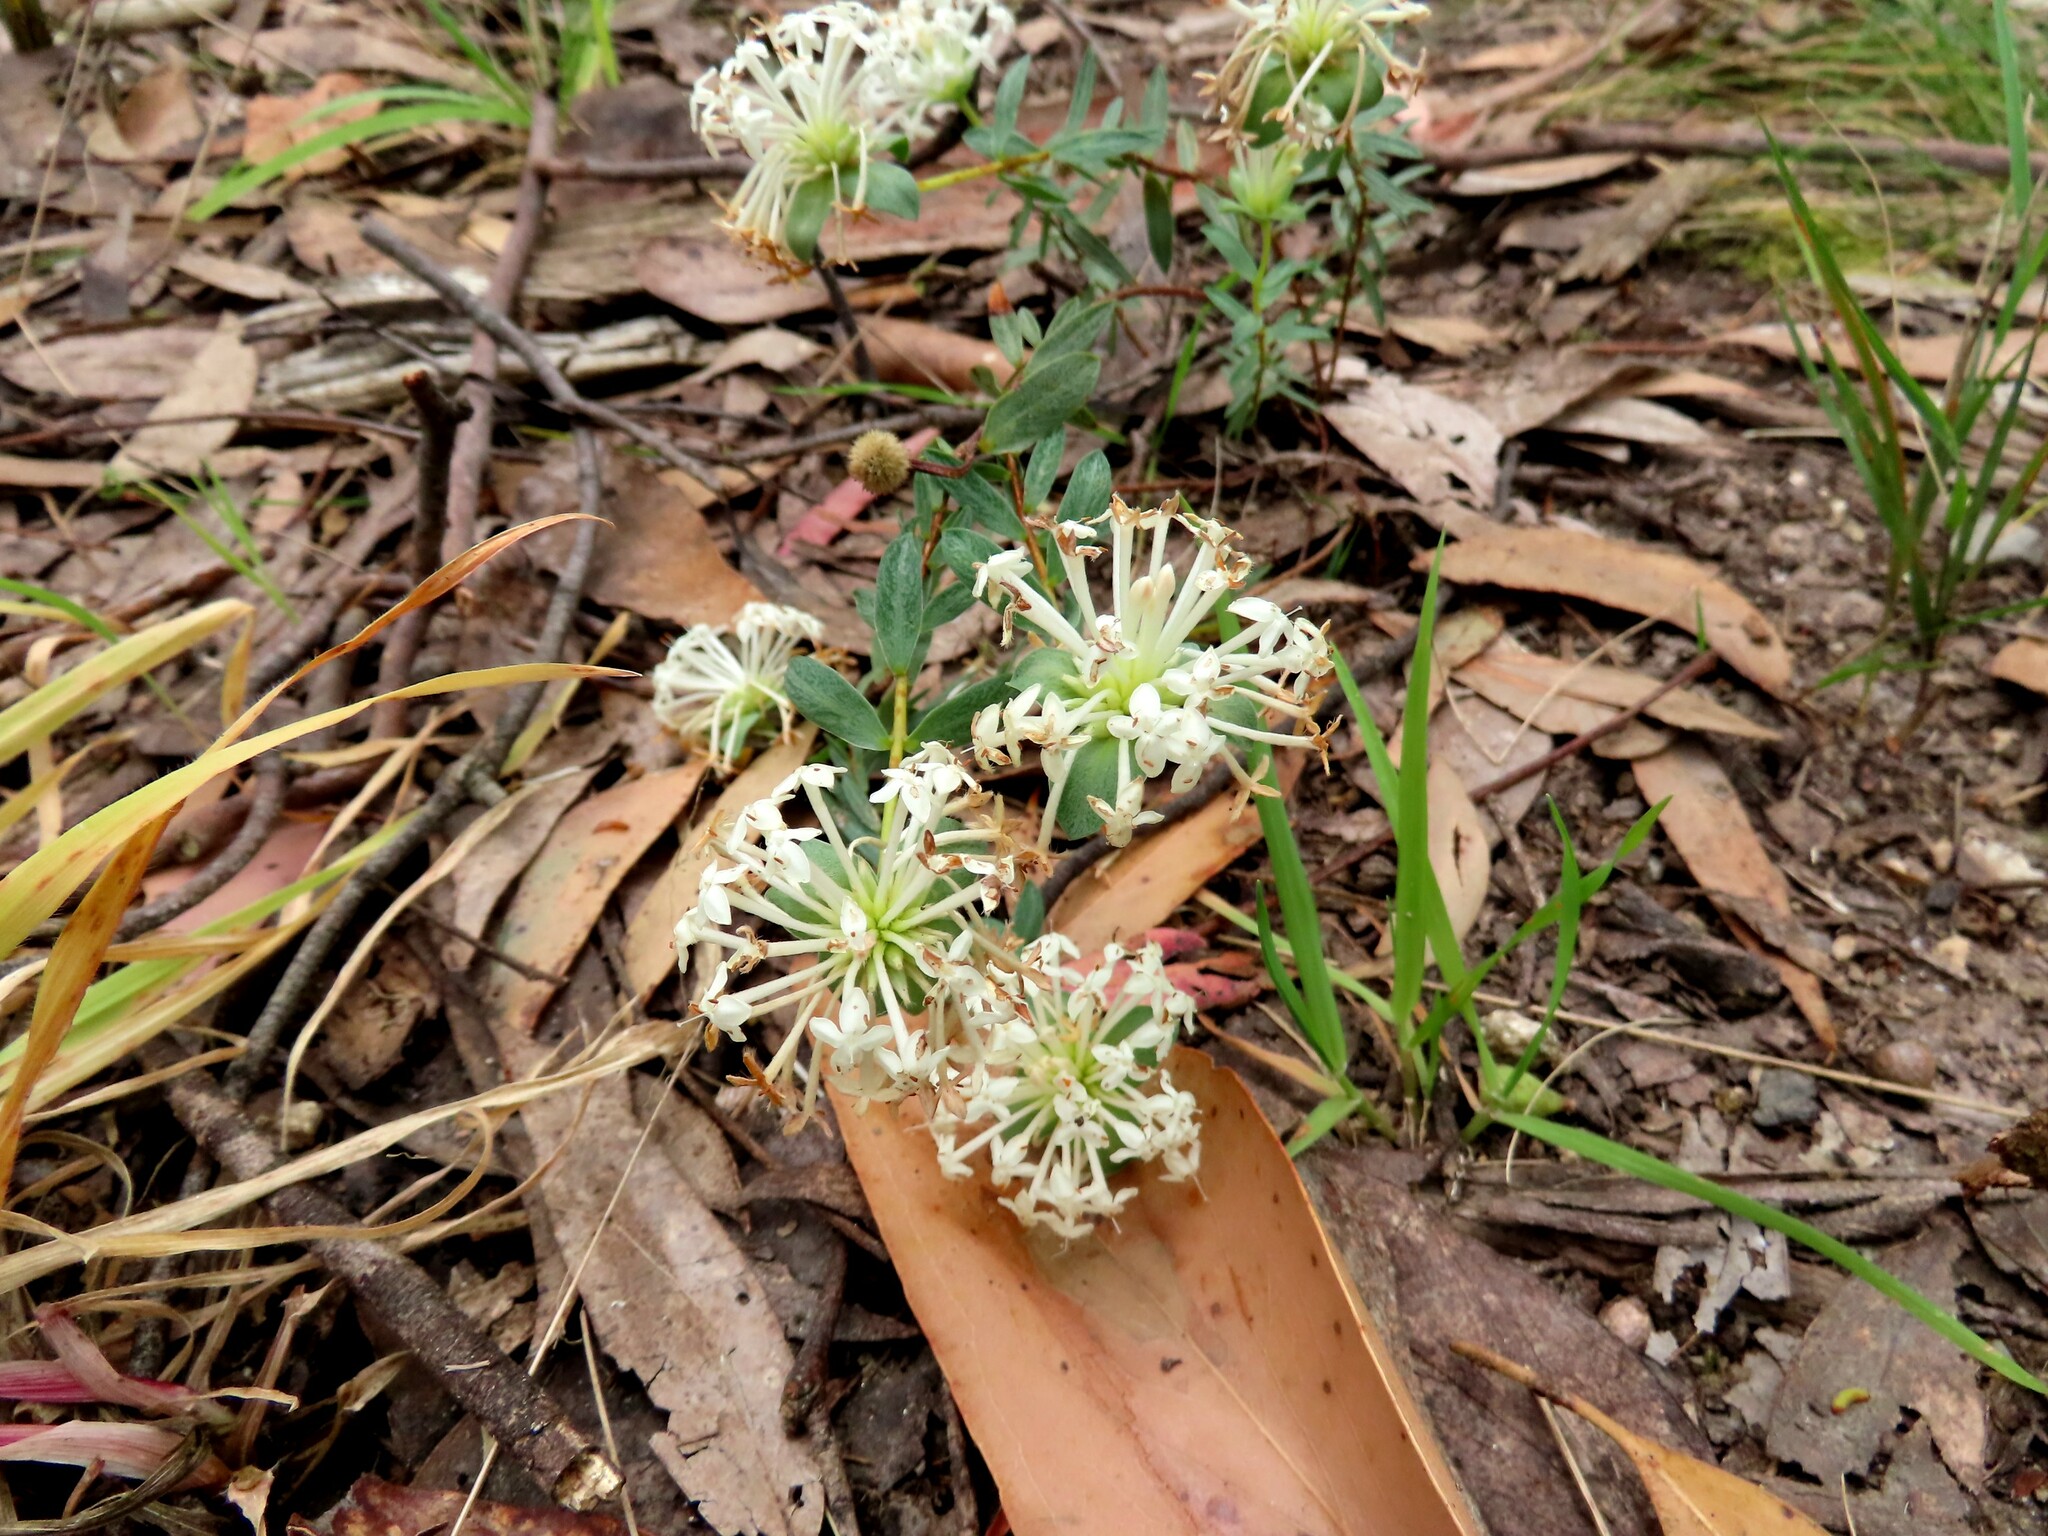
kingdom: Plantae
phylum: Tracheophyta
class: Magnoliopsida
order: Malvales
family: Thymelaeaceae
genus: Pimelea
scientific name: Pimelea humilis
